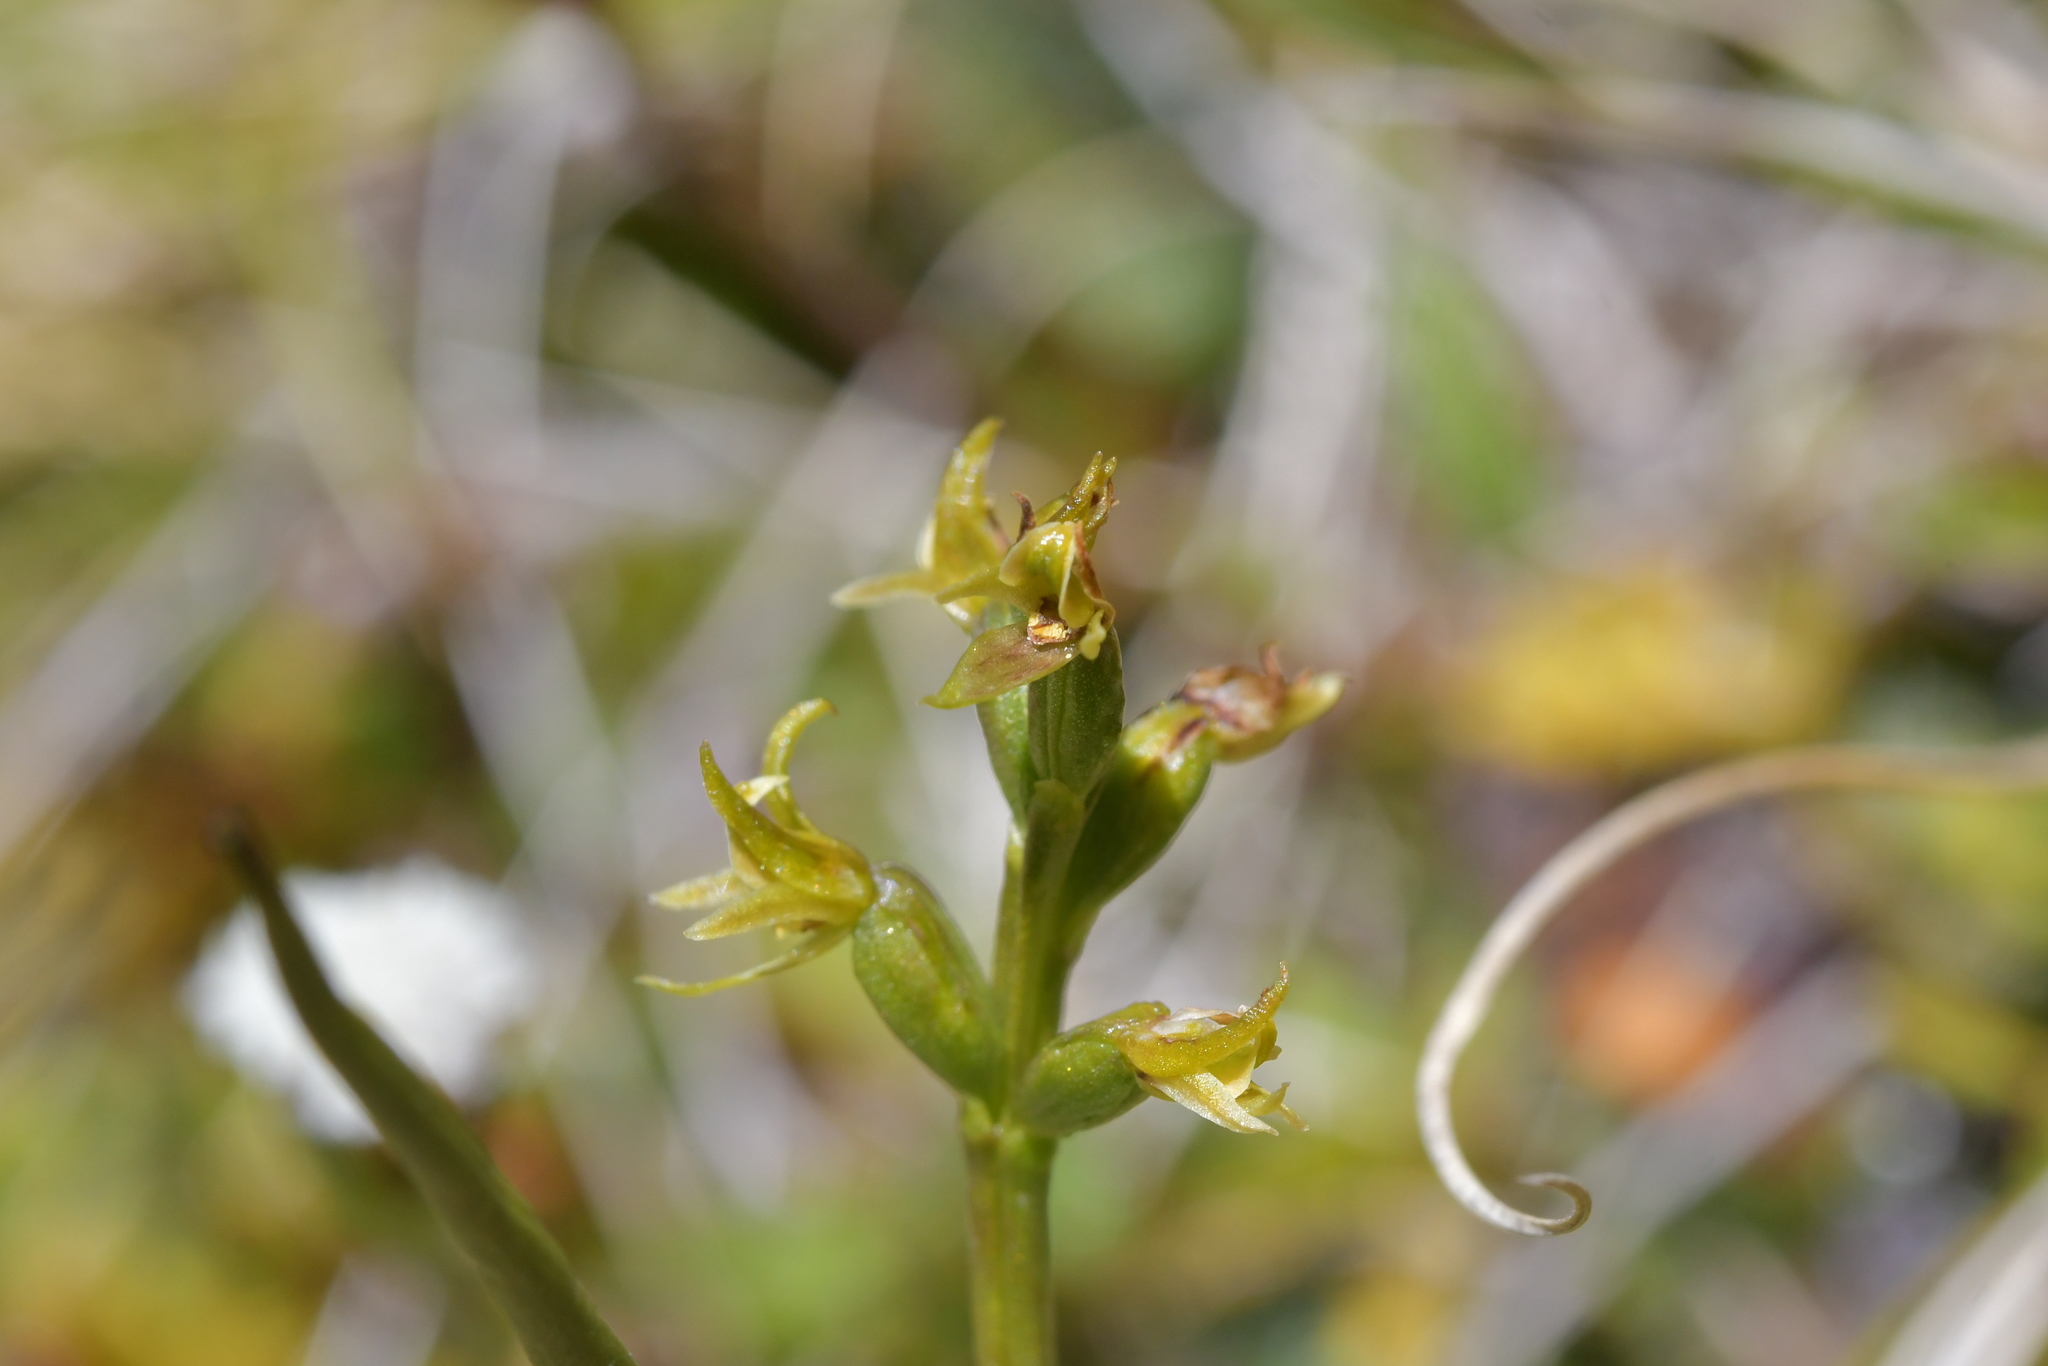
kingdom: Plantae
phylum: Tracheophyta
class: Liliopsida
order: Asparagales
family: Orchidaceae
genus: Prasophyllum
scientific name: Prasophyllum colensoi
